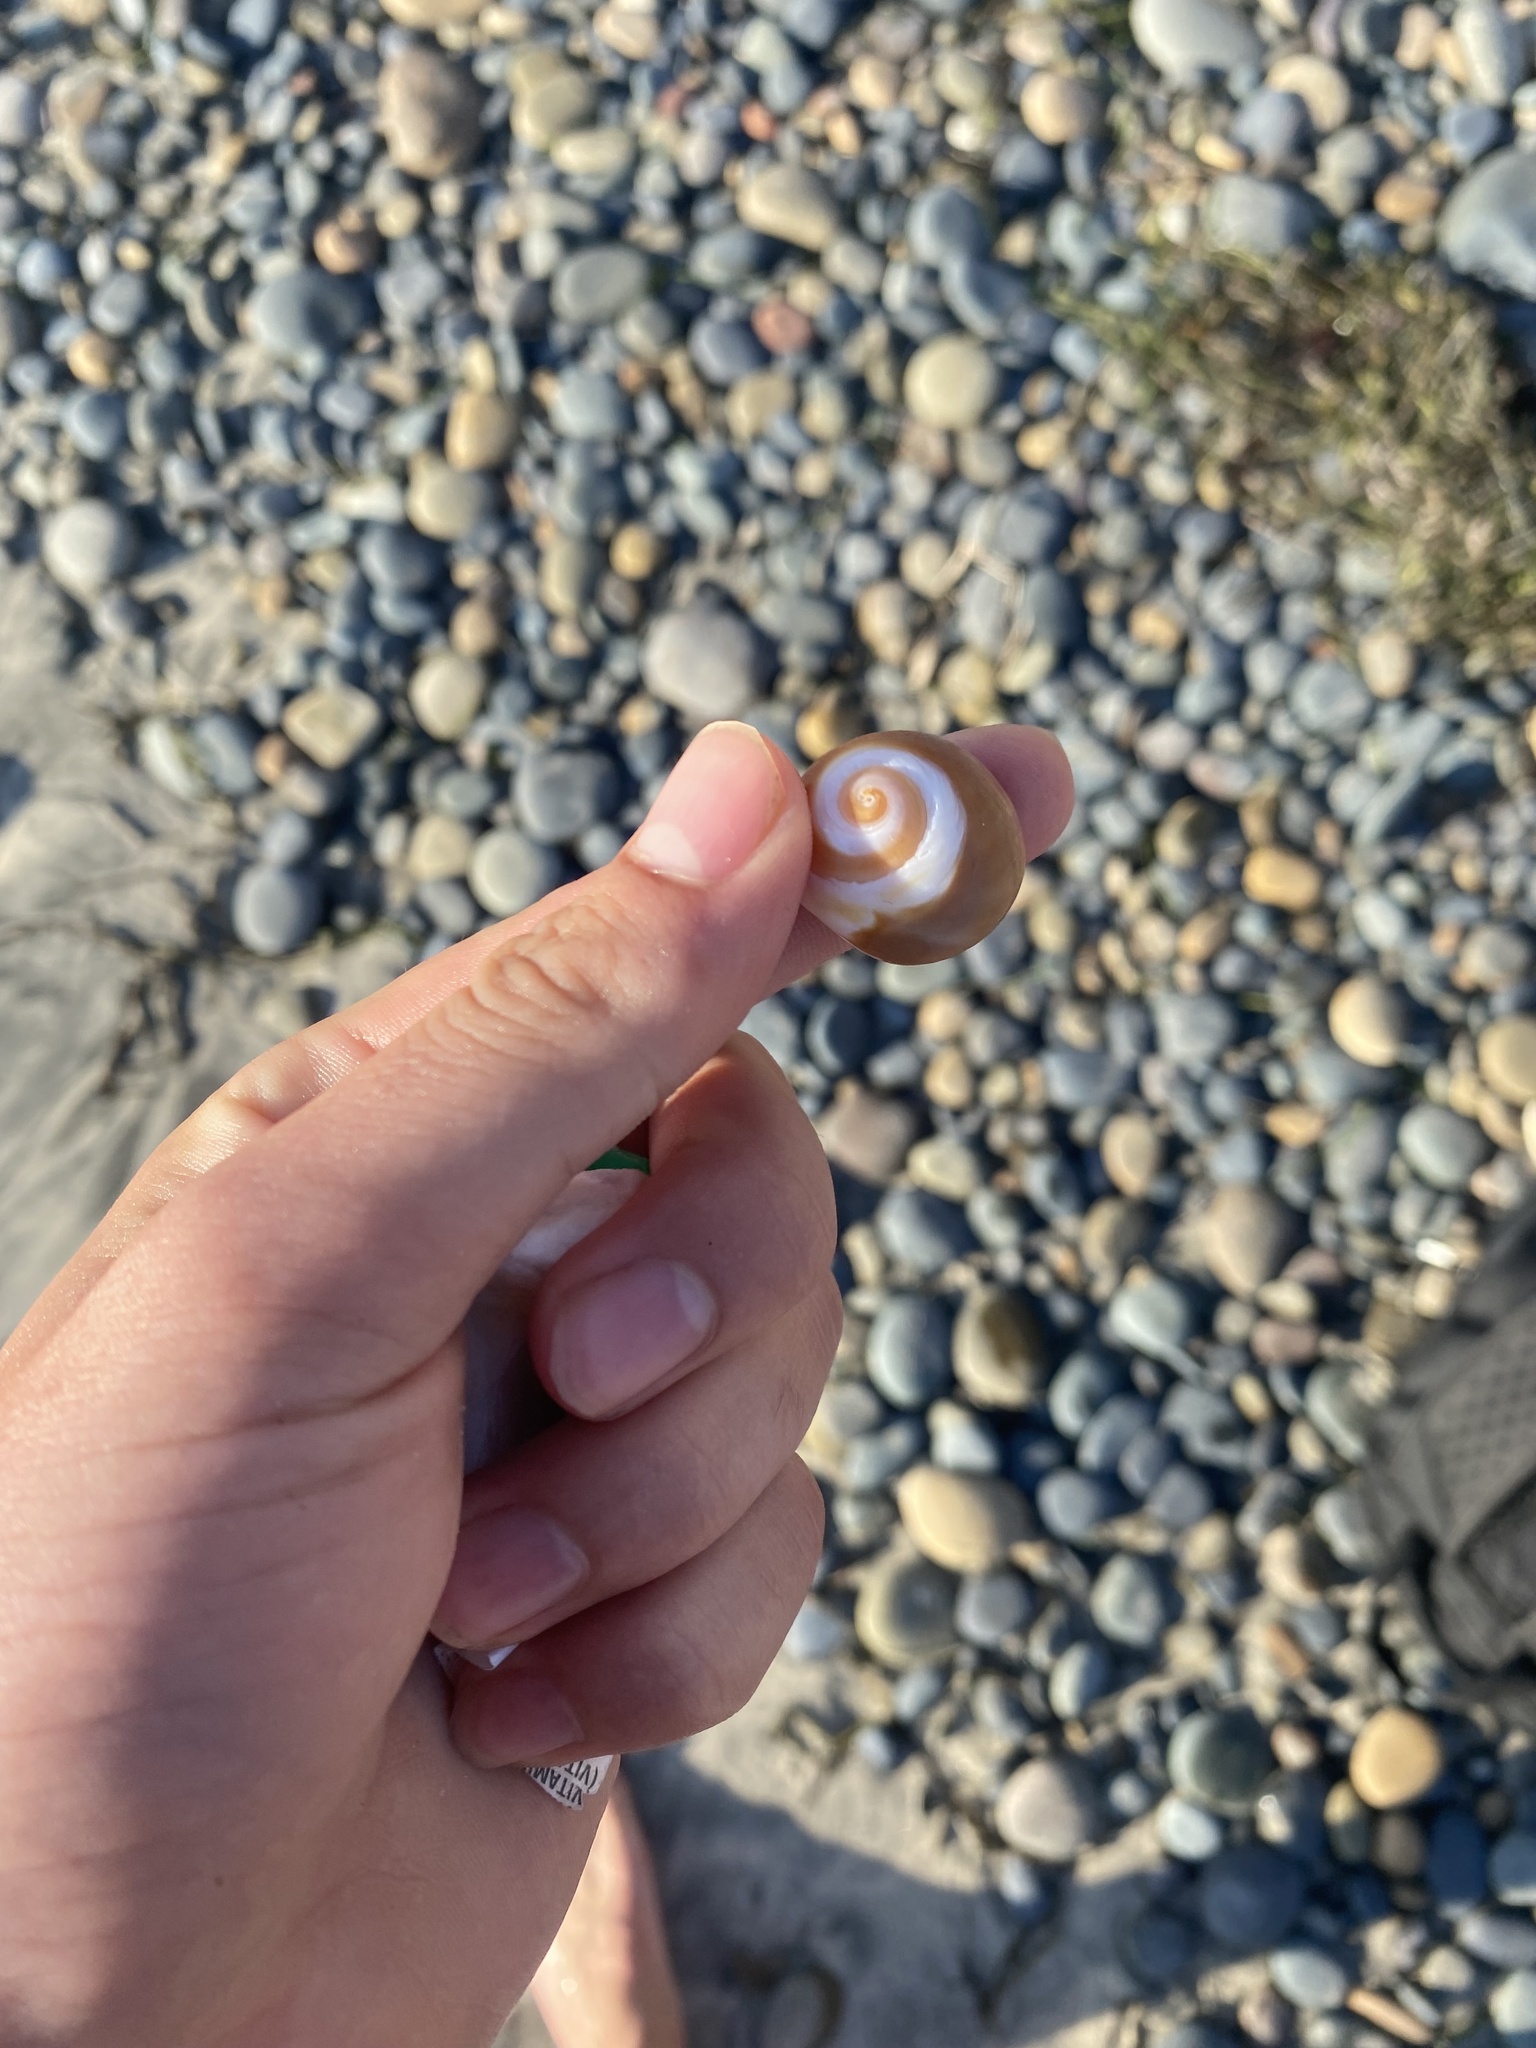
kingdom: Animalia
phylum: Mollusca
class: Gastropoda
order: Littorinimorpha
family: Naticidae
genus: Glossaulax
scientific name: Glossaulax reclusiana
